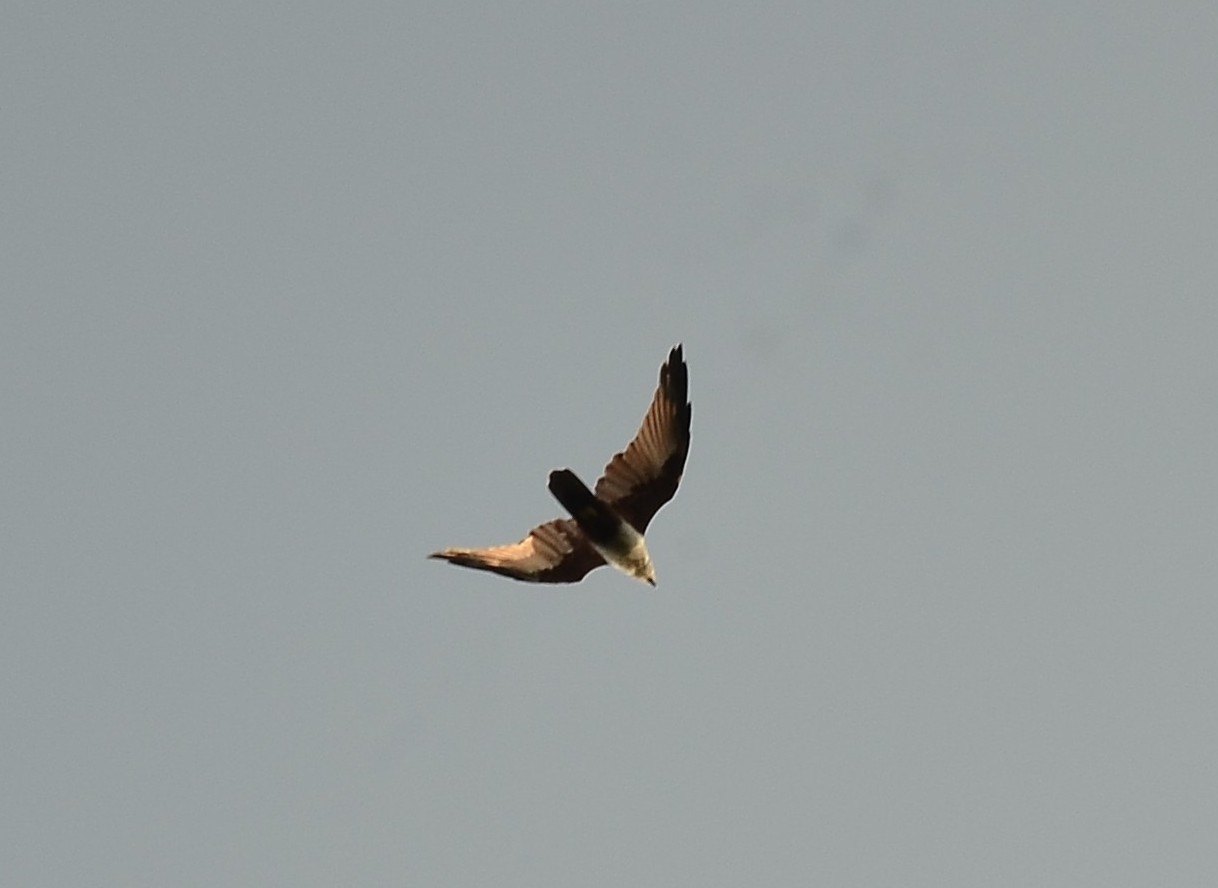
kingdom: Animalia
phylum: Chordata
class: Aves
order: Accipitriformes
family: Accipitridae
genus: Haliastur
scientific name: Haliastur indus
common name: Brahminy kite
